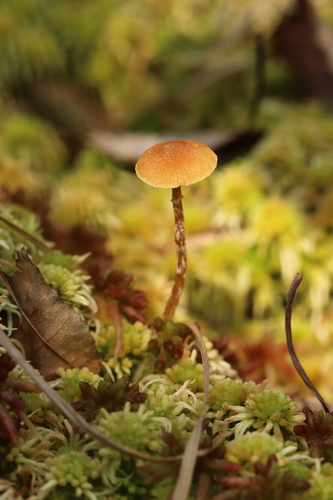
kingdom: Fungi
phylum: Basidiomycota
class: Agaricomycetes
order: Agaricales
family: Hymenogastraceae
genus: Galerina
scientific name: Galerina paludosa
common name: Bog bell
